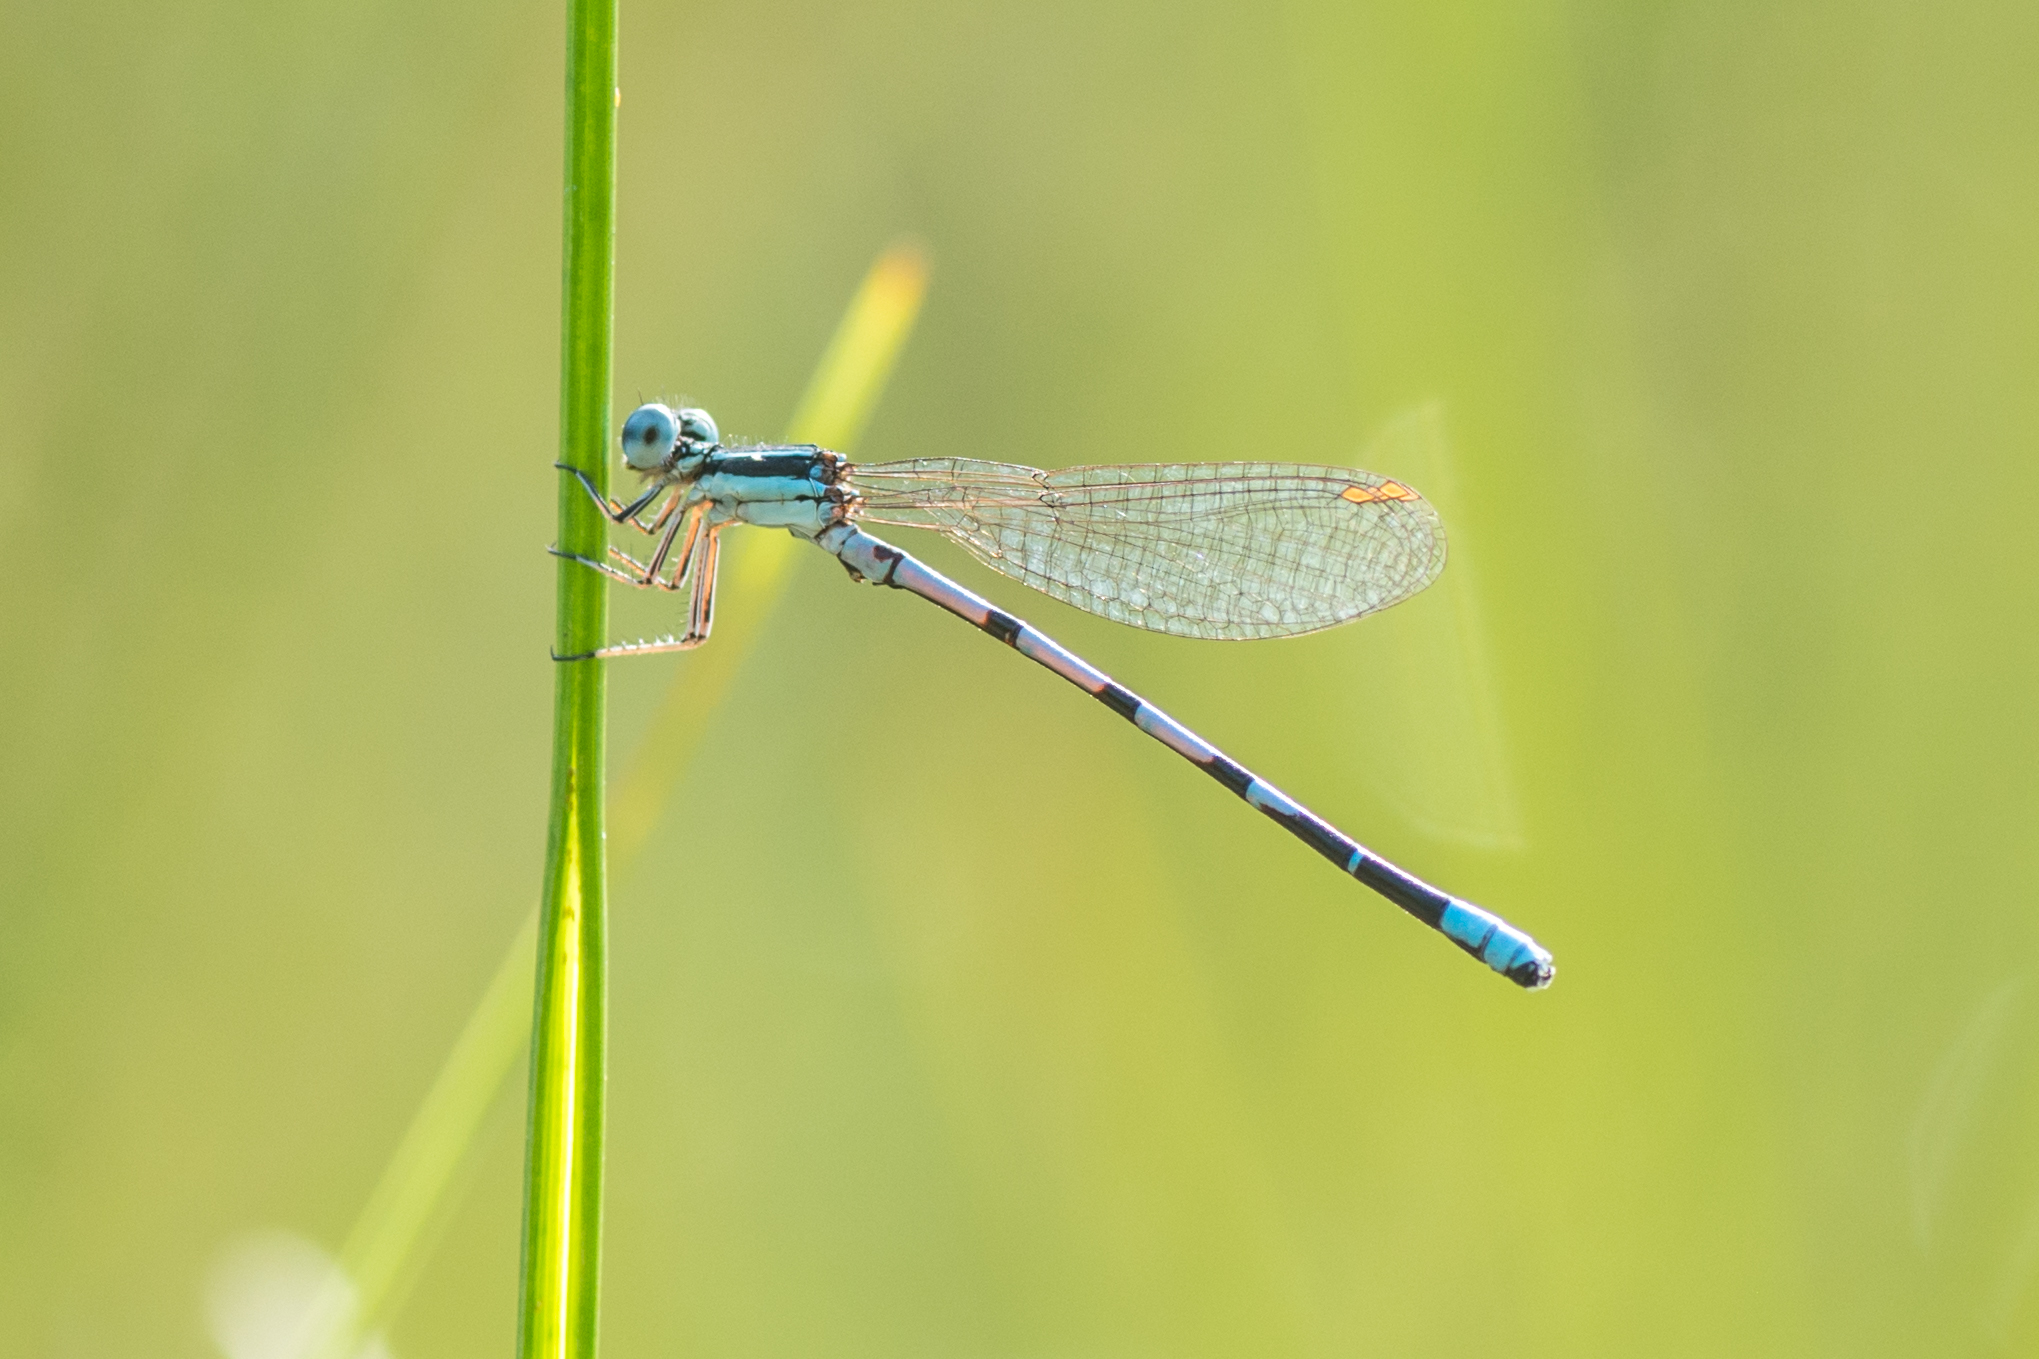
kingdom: Animalia
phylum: Arthropoda
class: Insecta
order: Odonata
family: Coenagrionidae
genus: Argia
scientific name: Argia bipunctulata
